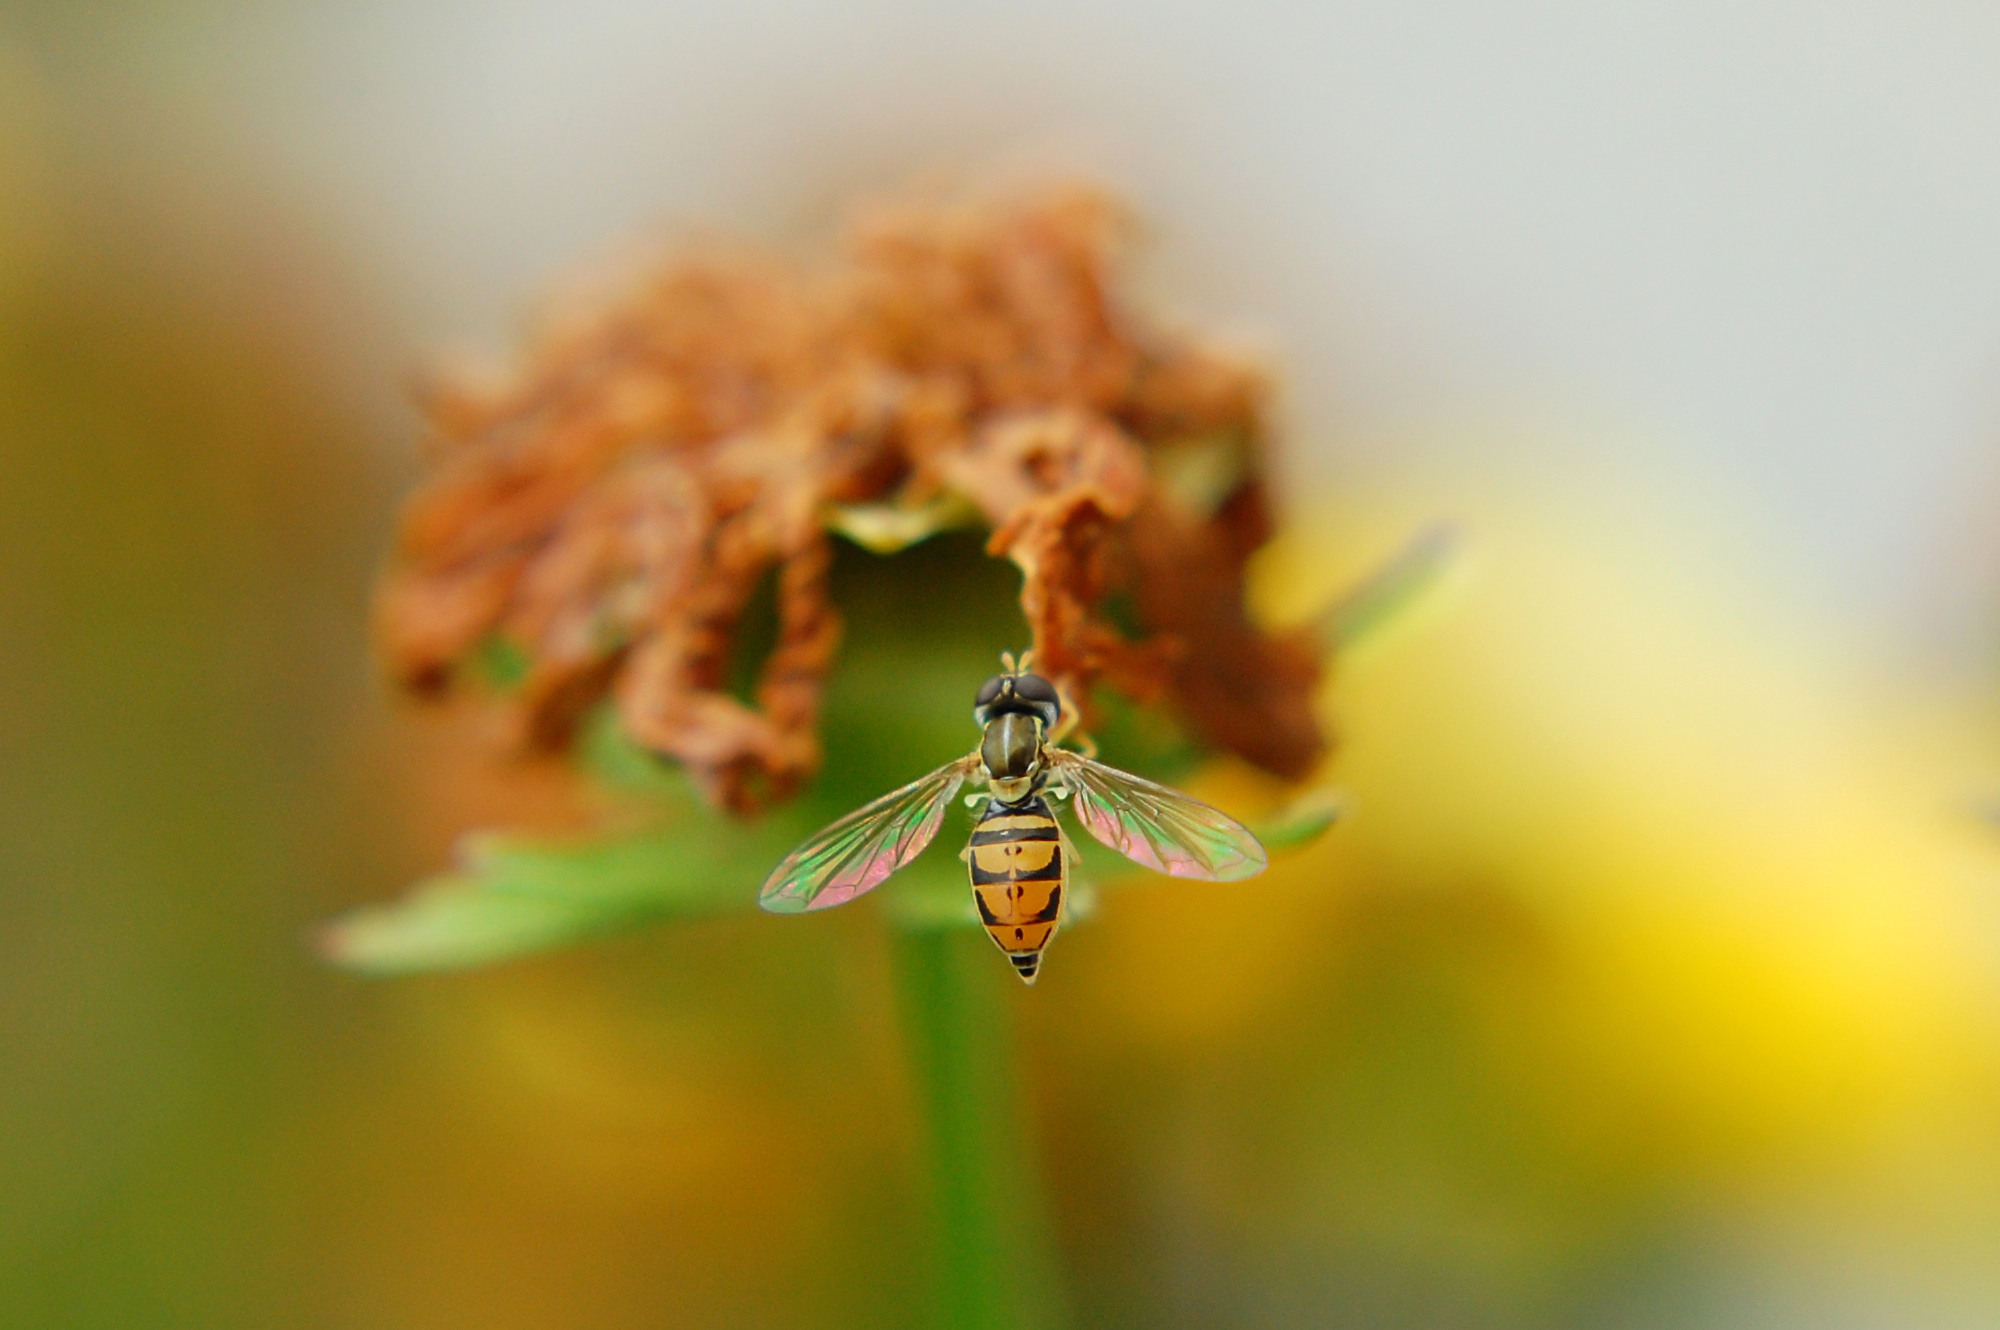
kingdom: Animalia
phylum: Arthropoda
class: Insecta
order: Diptera
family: Syrphidae
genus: Toxomerus
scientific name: Toxomerus marginatus
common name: Syrphid fly
